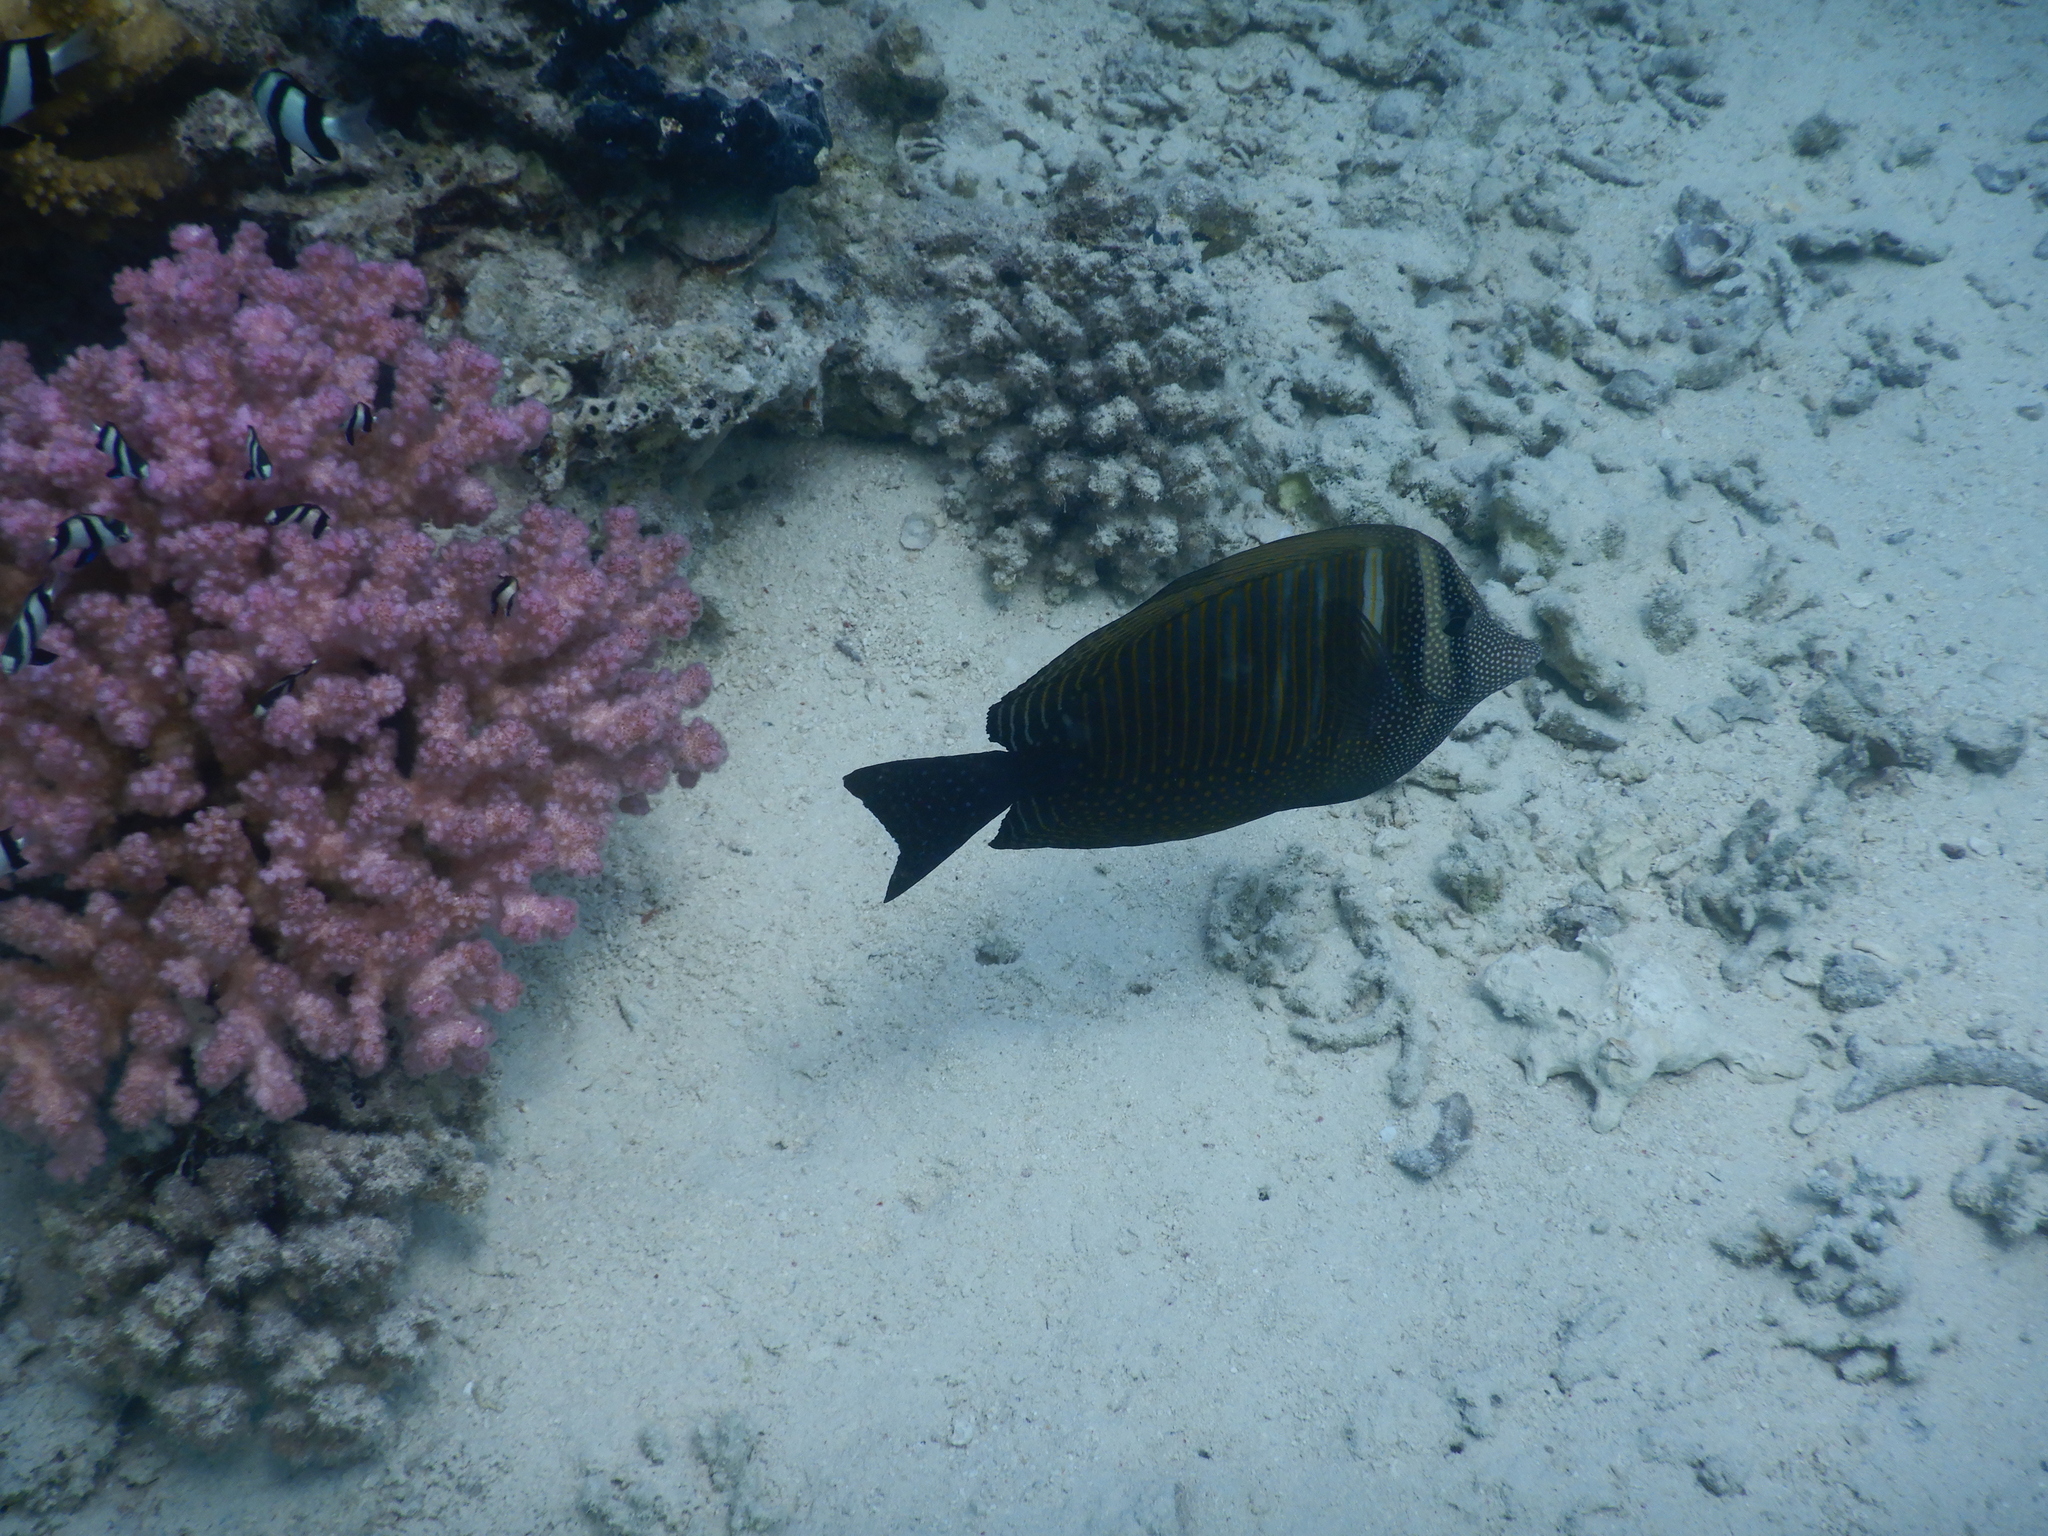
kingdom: Animalia
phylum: Chordata
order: Perciformes
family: Acanthuridae
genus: Zebrasoma
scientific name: Zebrasoma desjardinii
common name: Desjardin's sailfin tang
